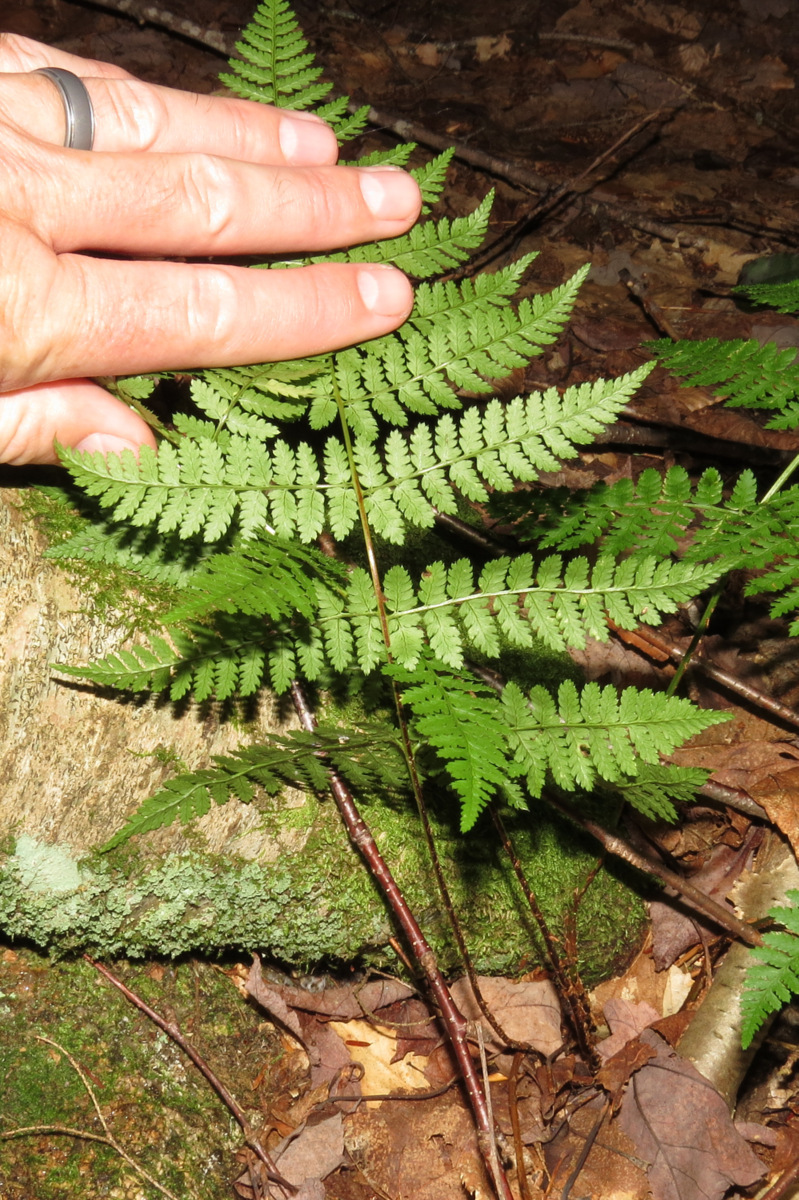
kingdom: Plantae
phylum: Tracheophyta
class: Polypodiopsida
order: Polypodiales
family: Dryopteridaceae
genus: Dryopteris
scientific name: Dryopteris intermedia
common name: Evergreen wood fern
